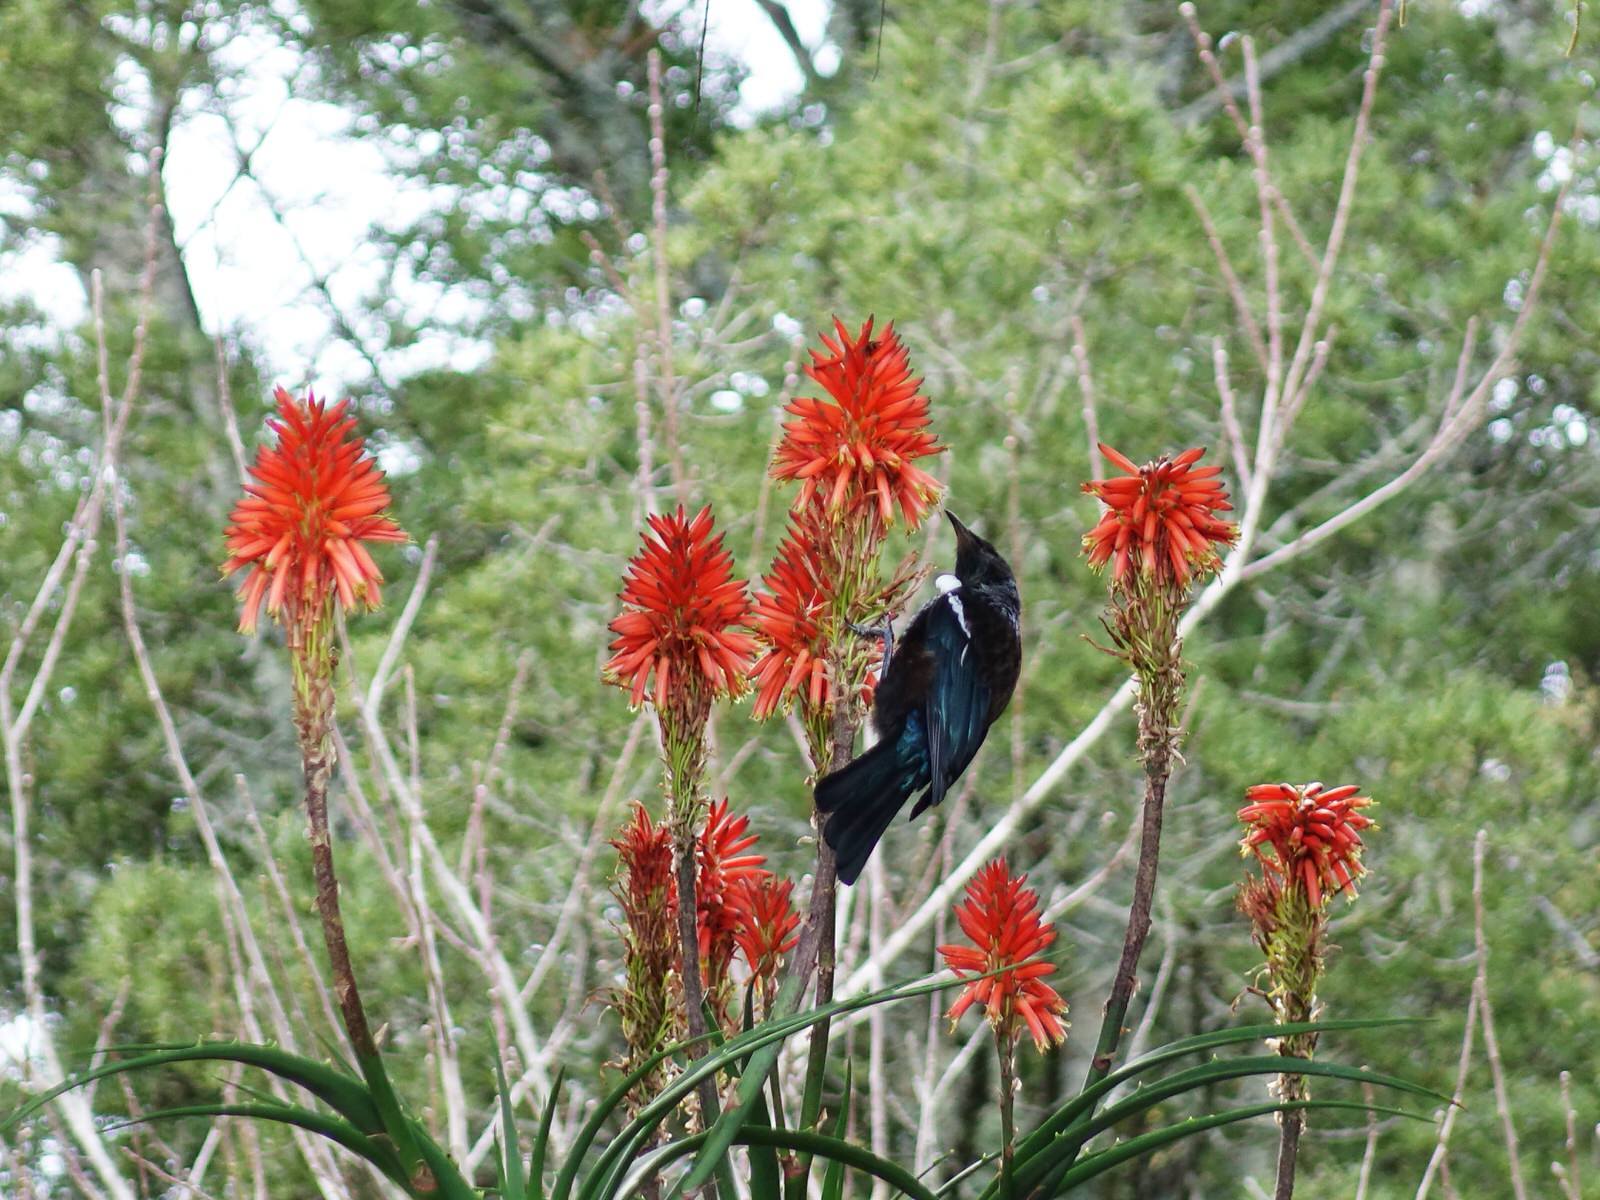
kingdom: Animalia
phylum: Chordata
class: Aves
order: Passeriformes
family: Meliphagidae
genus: Prosthemadera
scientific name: Prosthemadera novaeseelandiae
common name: Tui
